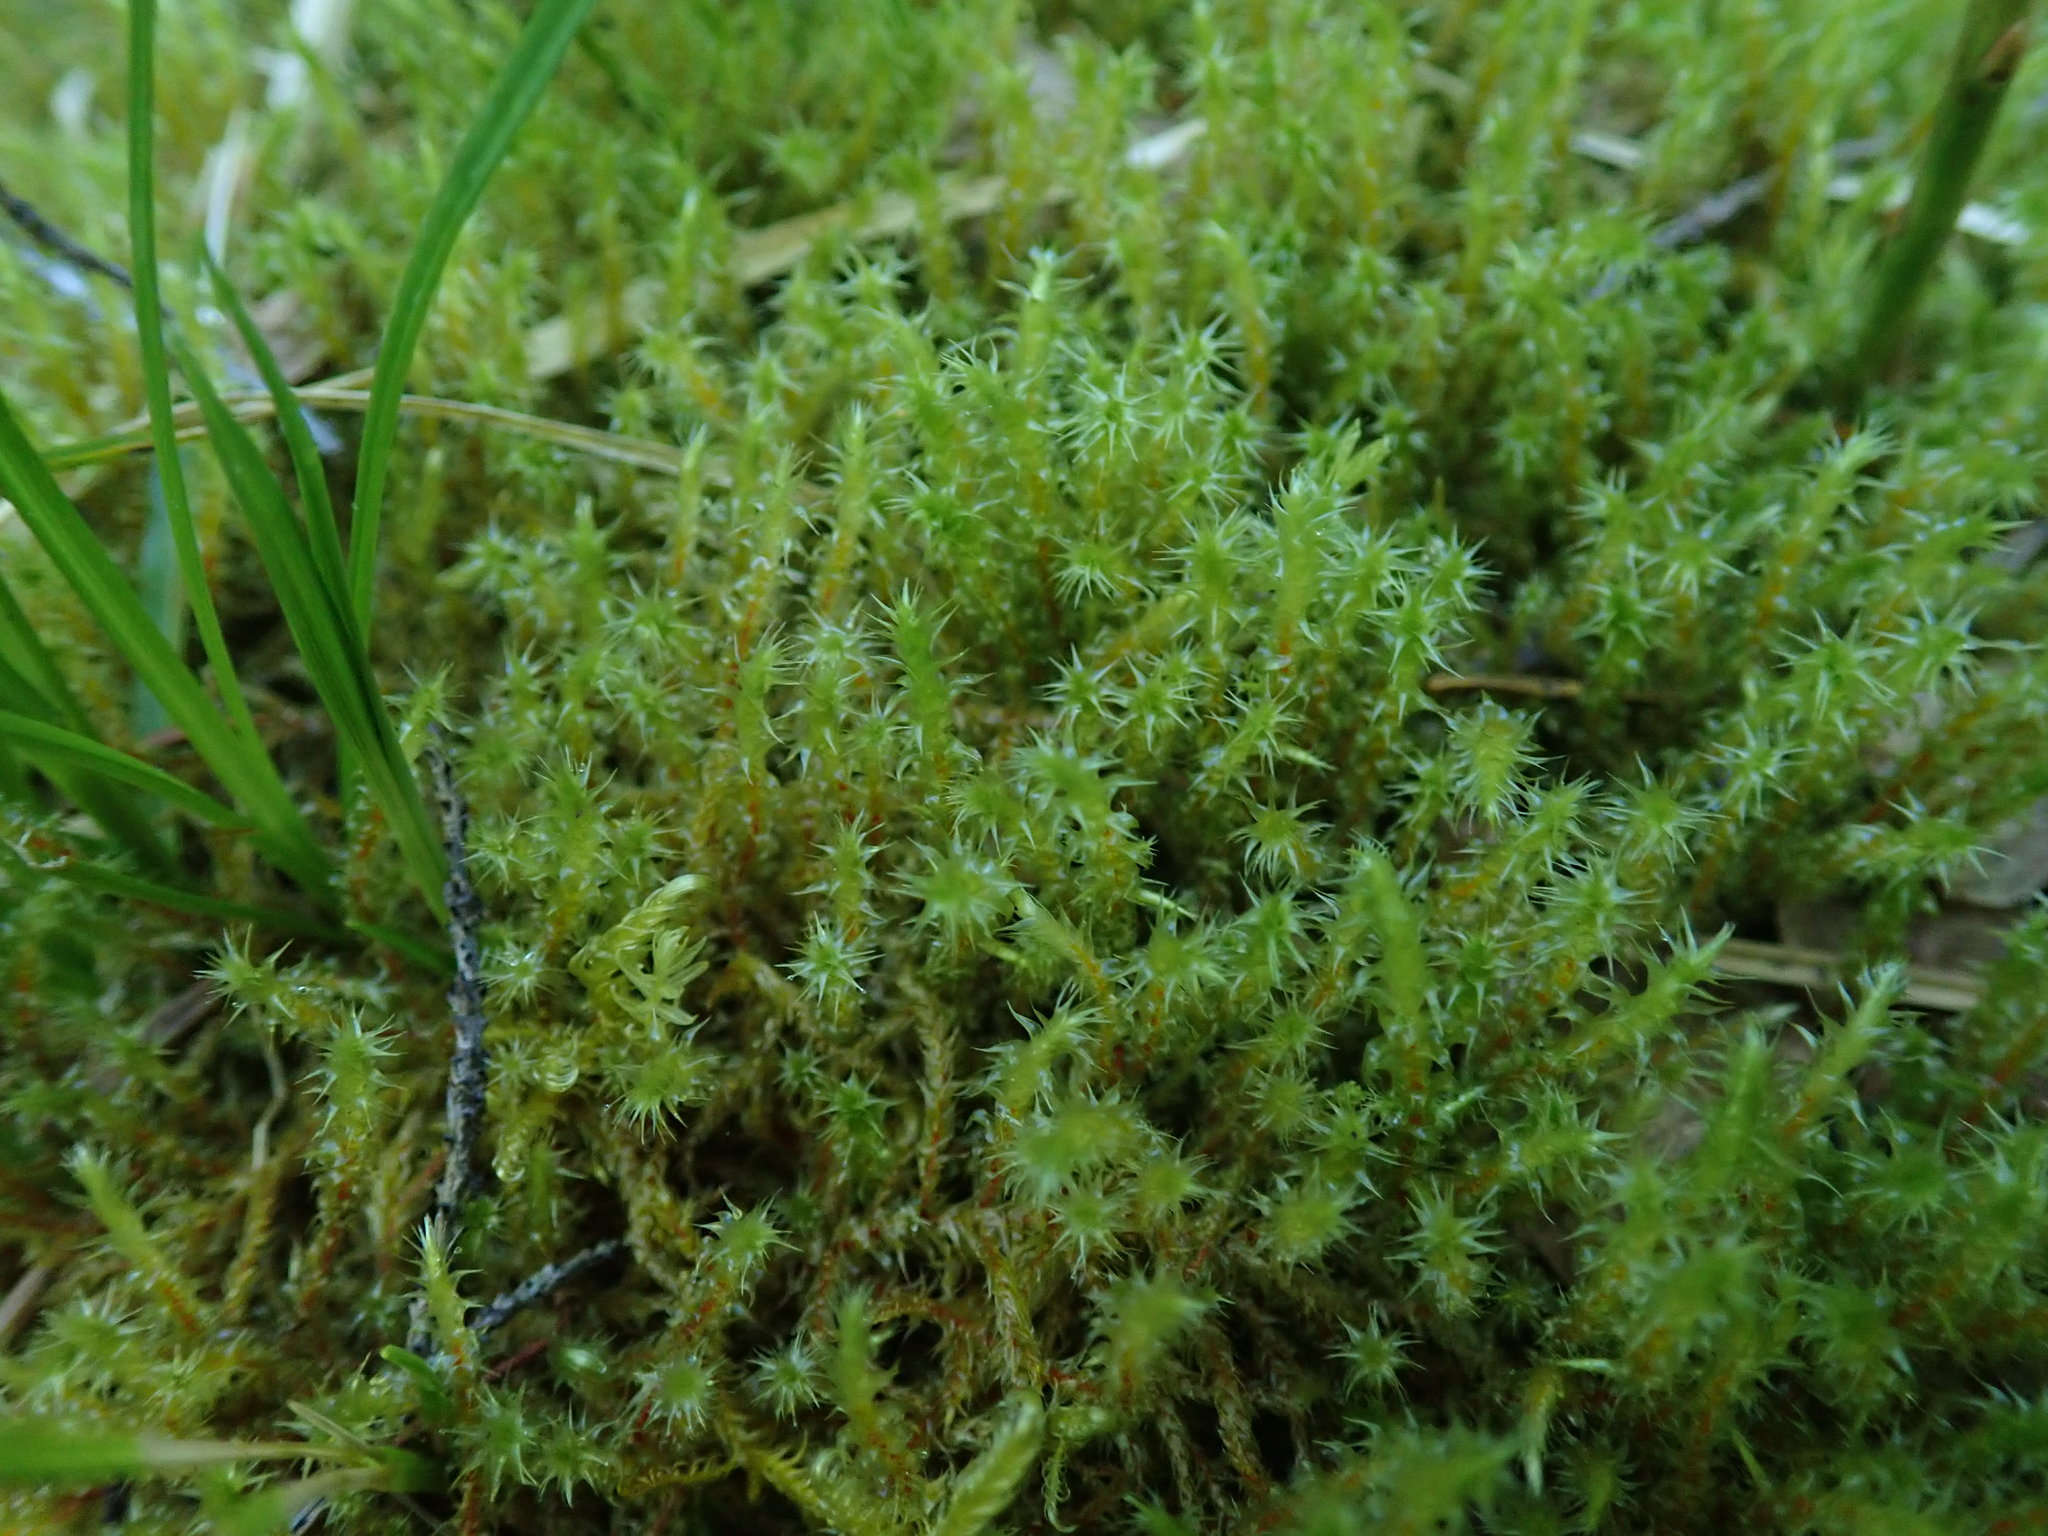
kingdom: Plantae
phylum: Bryophyta
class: Bryopsida
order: Hypnales
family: Hylocomiaceae
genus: Rhytidiadelphus
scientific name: Rhytidiadelphus squarrosus
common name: Springy turf-moss
